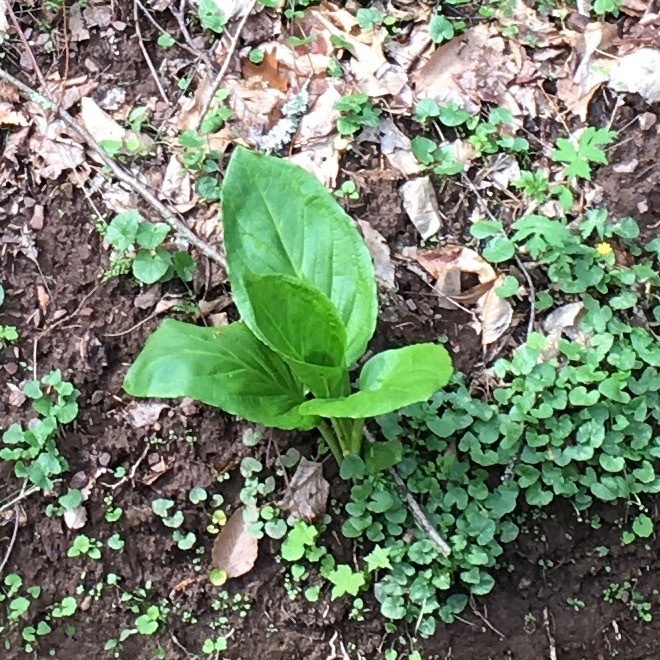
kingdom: Plantae
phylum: Tracheophyta
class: Liliopsida
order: Alismatales
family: Araceae
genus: Symplocarpus
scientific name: Symplocarpus foetidus
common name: Eastern skunk cabbage
